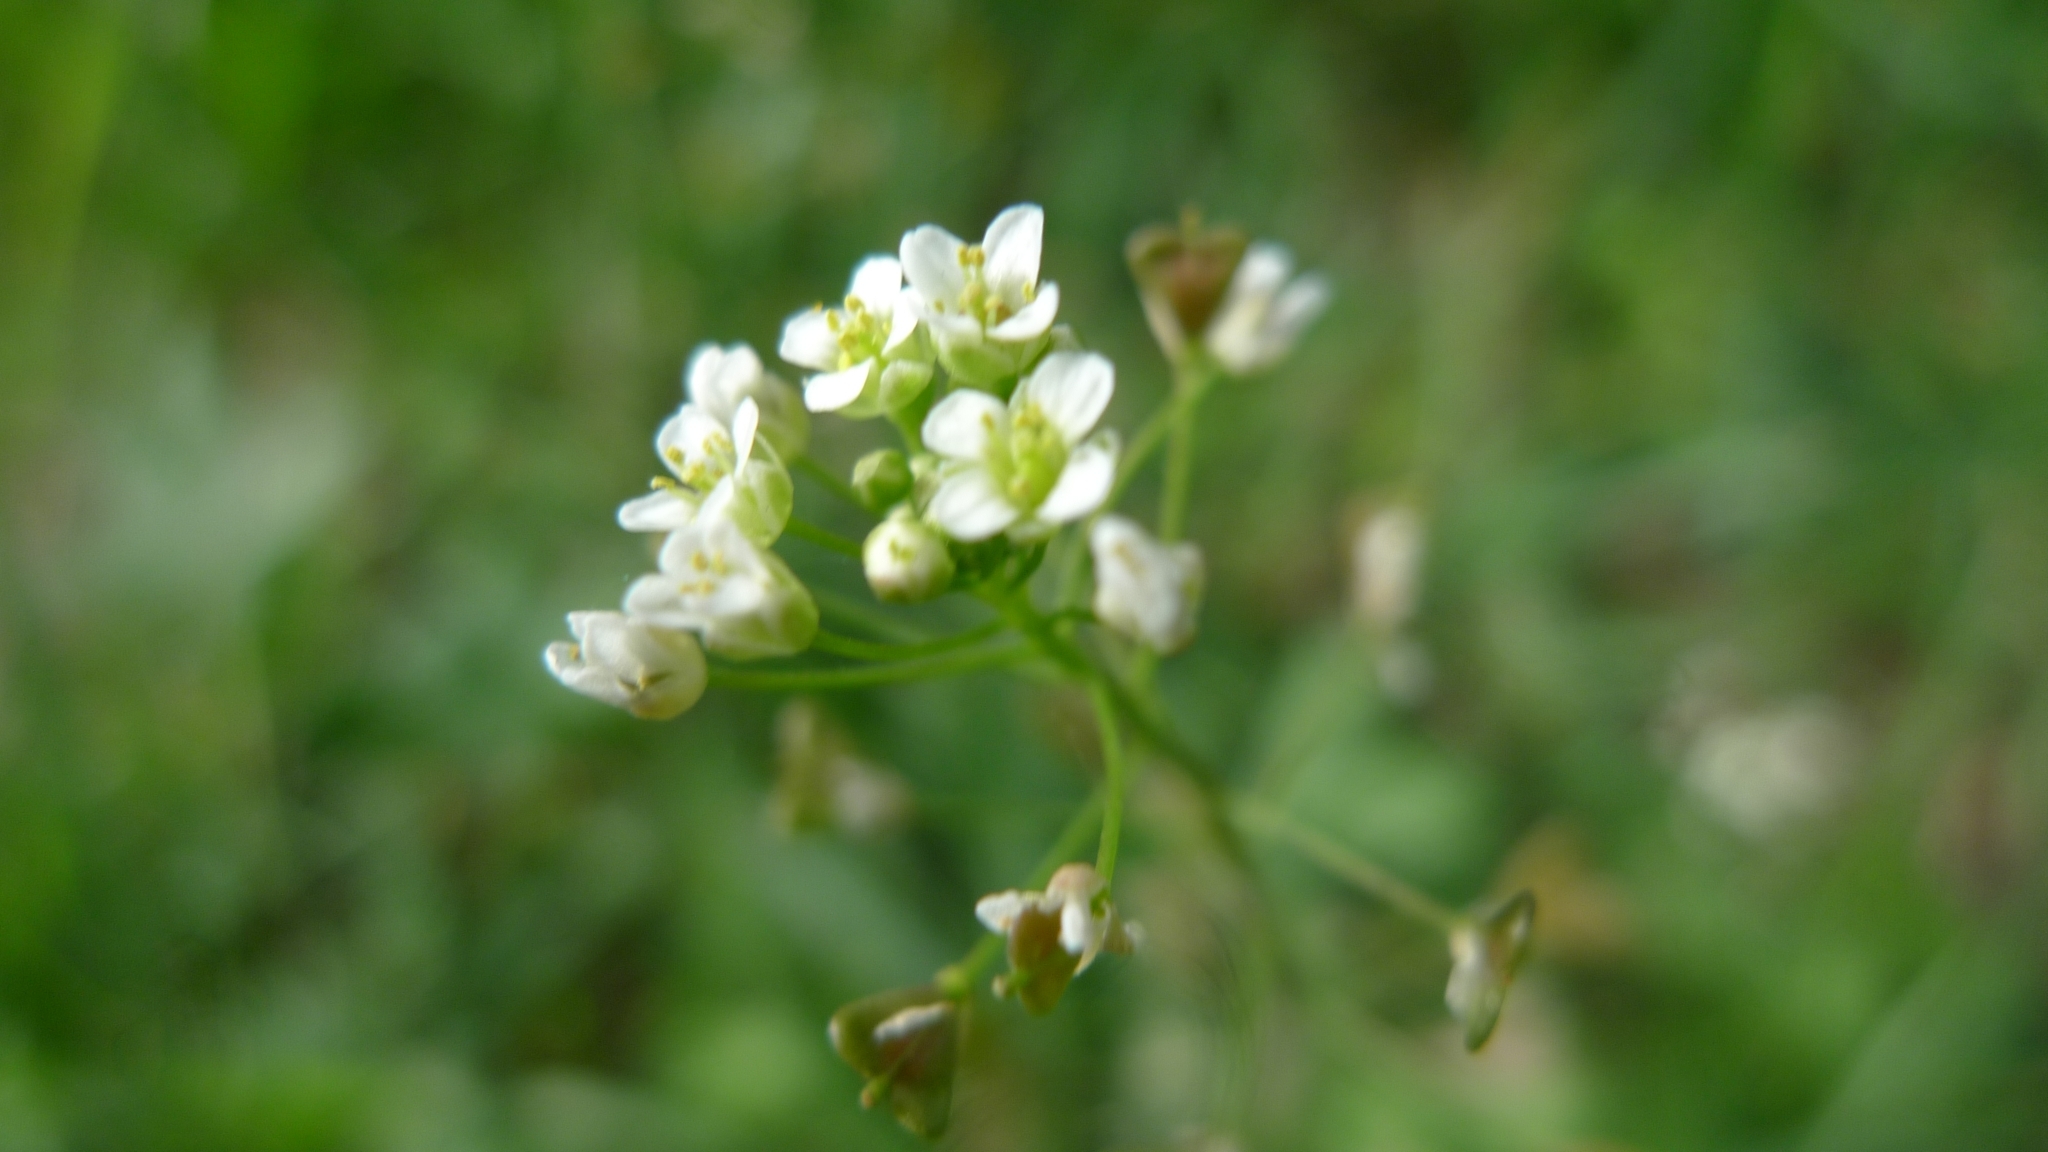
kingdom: Plantae
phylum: Tracheophyta
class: Magnoliopsida
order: Brassicales
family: Brassicaceae
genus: Capsella
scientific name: Capsella bursa-pastoris
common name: Shepherd's purse
